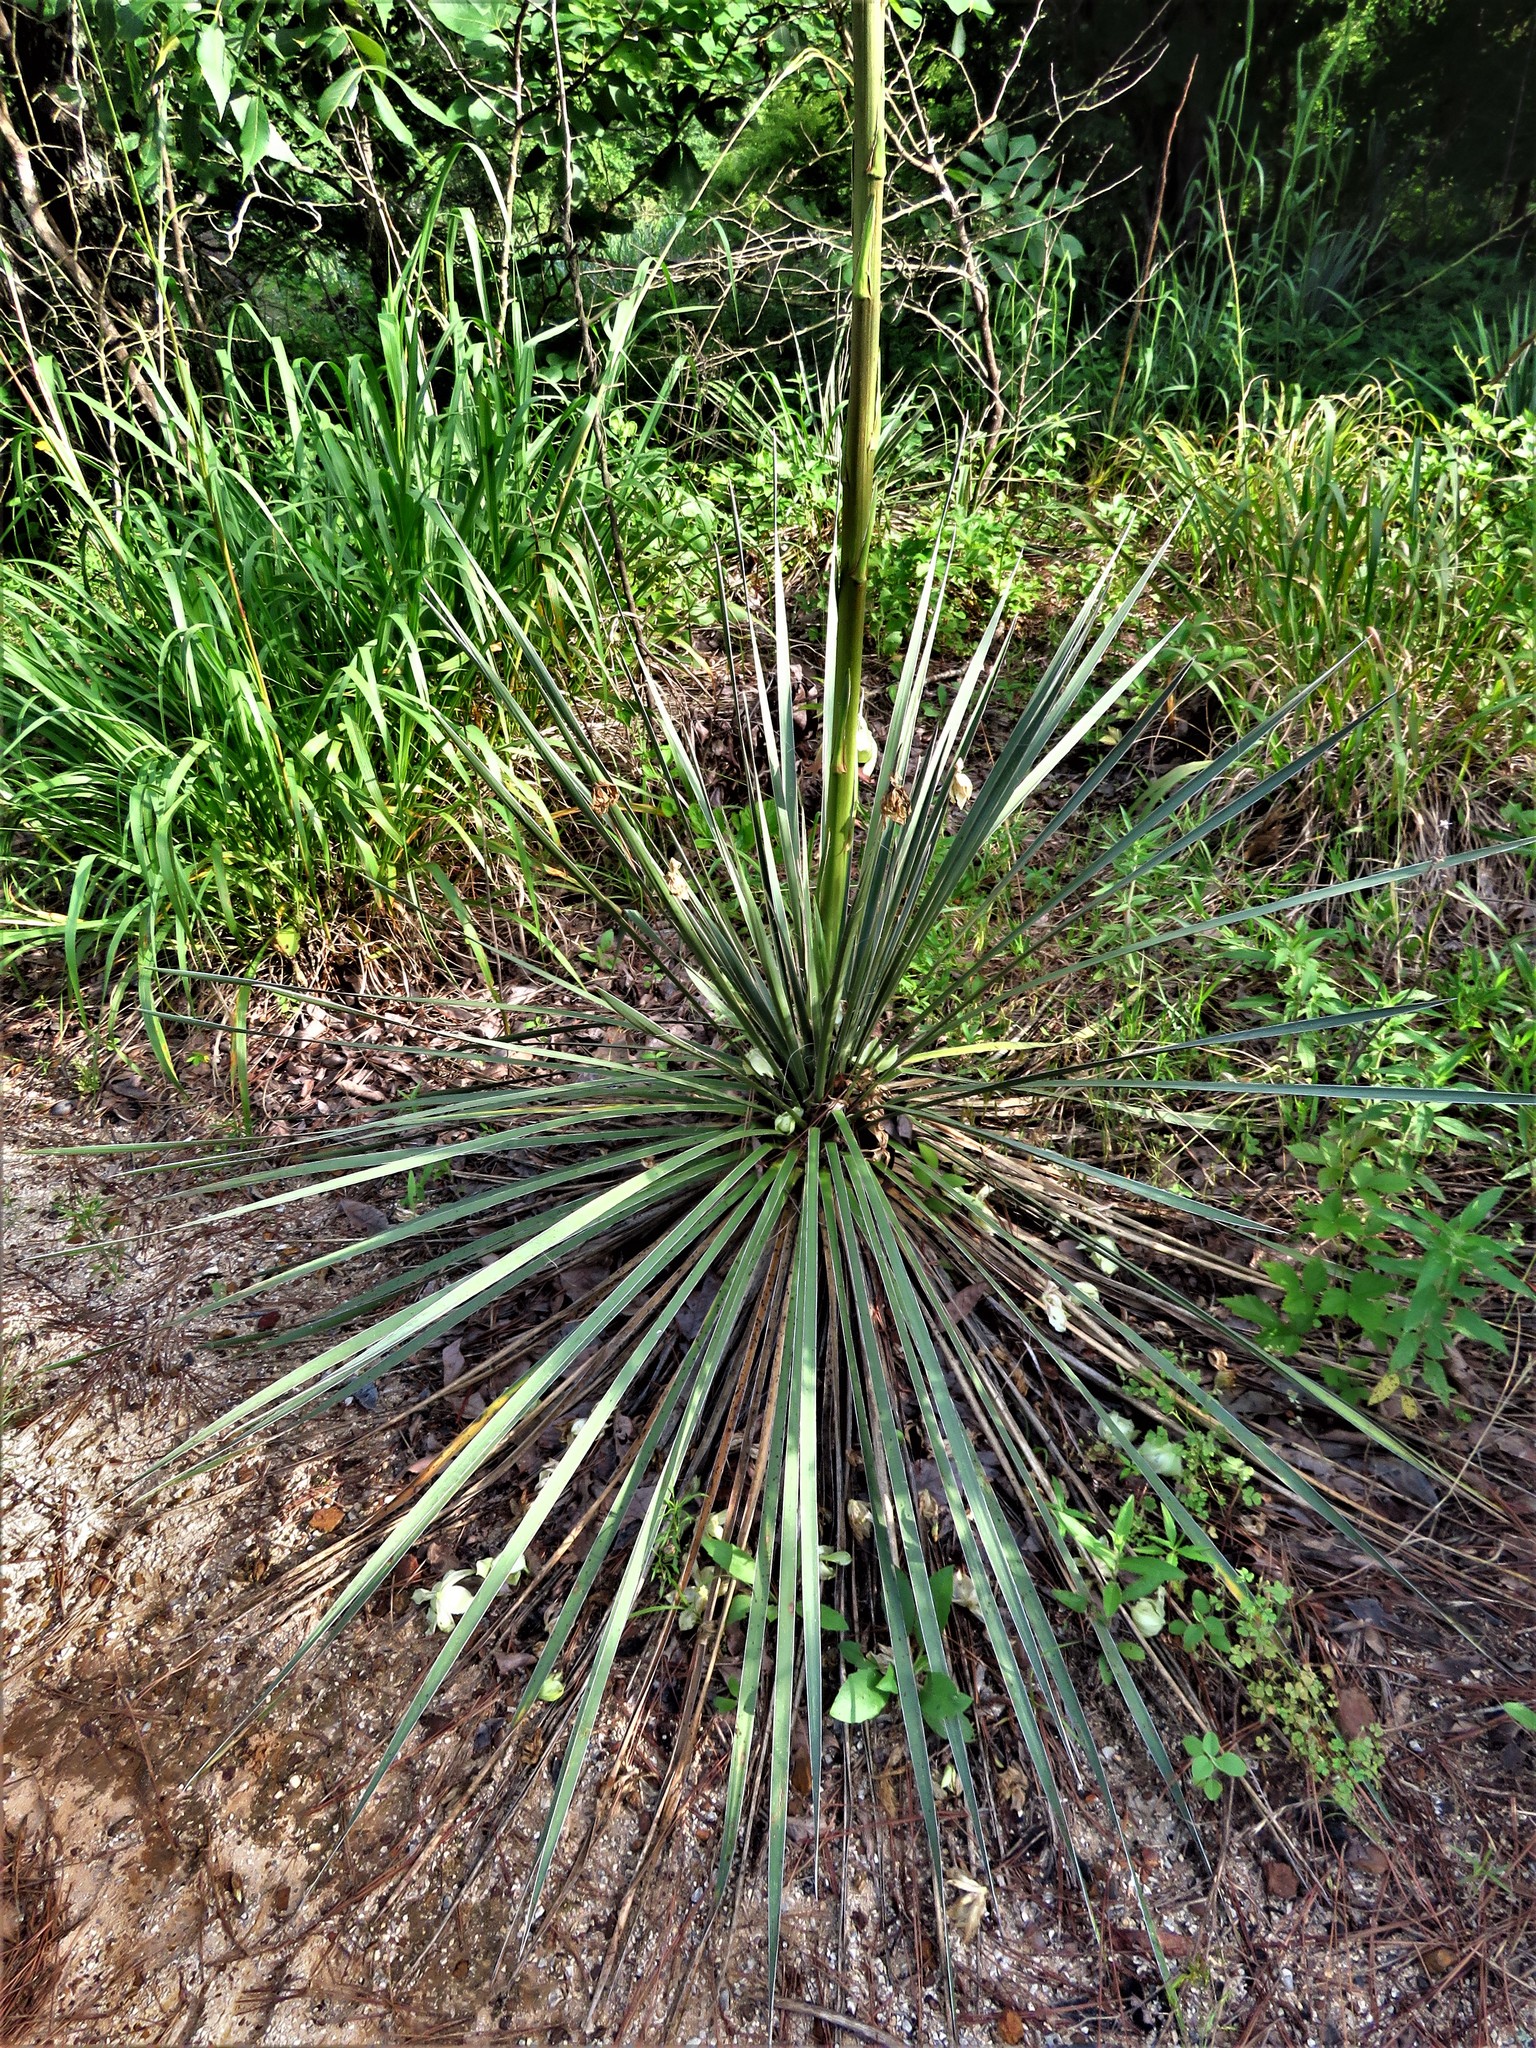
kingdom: Plantae
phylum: Tracheophyta
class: Liliopsida
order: Asparagales
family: Asparagaceae
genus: Yucca
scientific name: Yucca flaccida
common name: Adam's-needle
